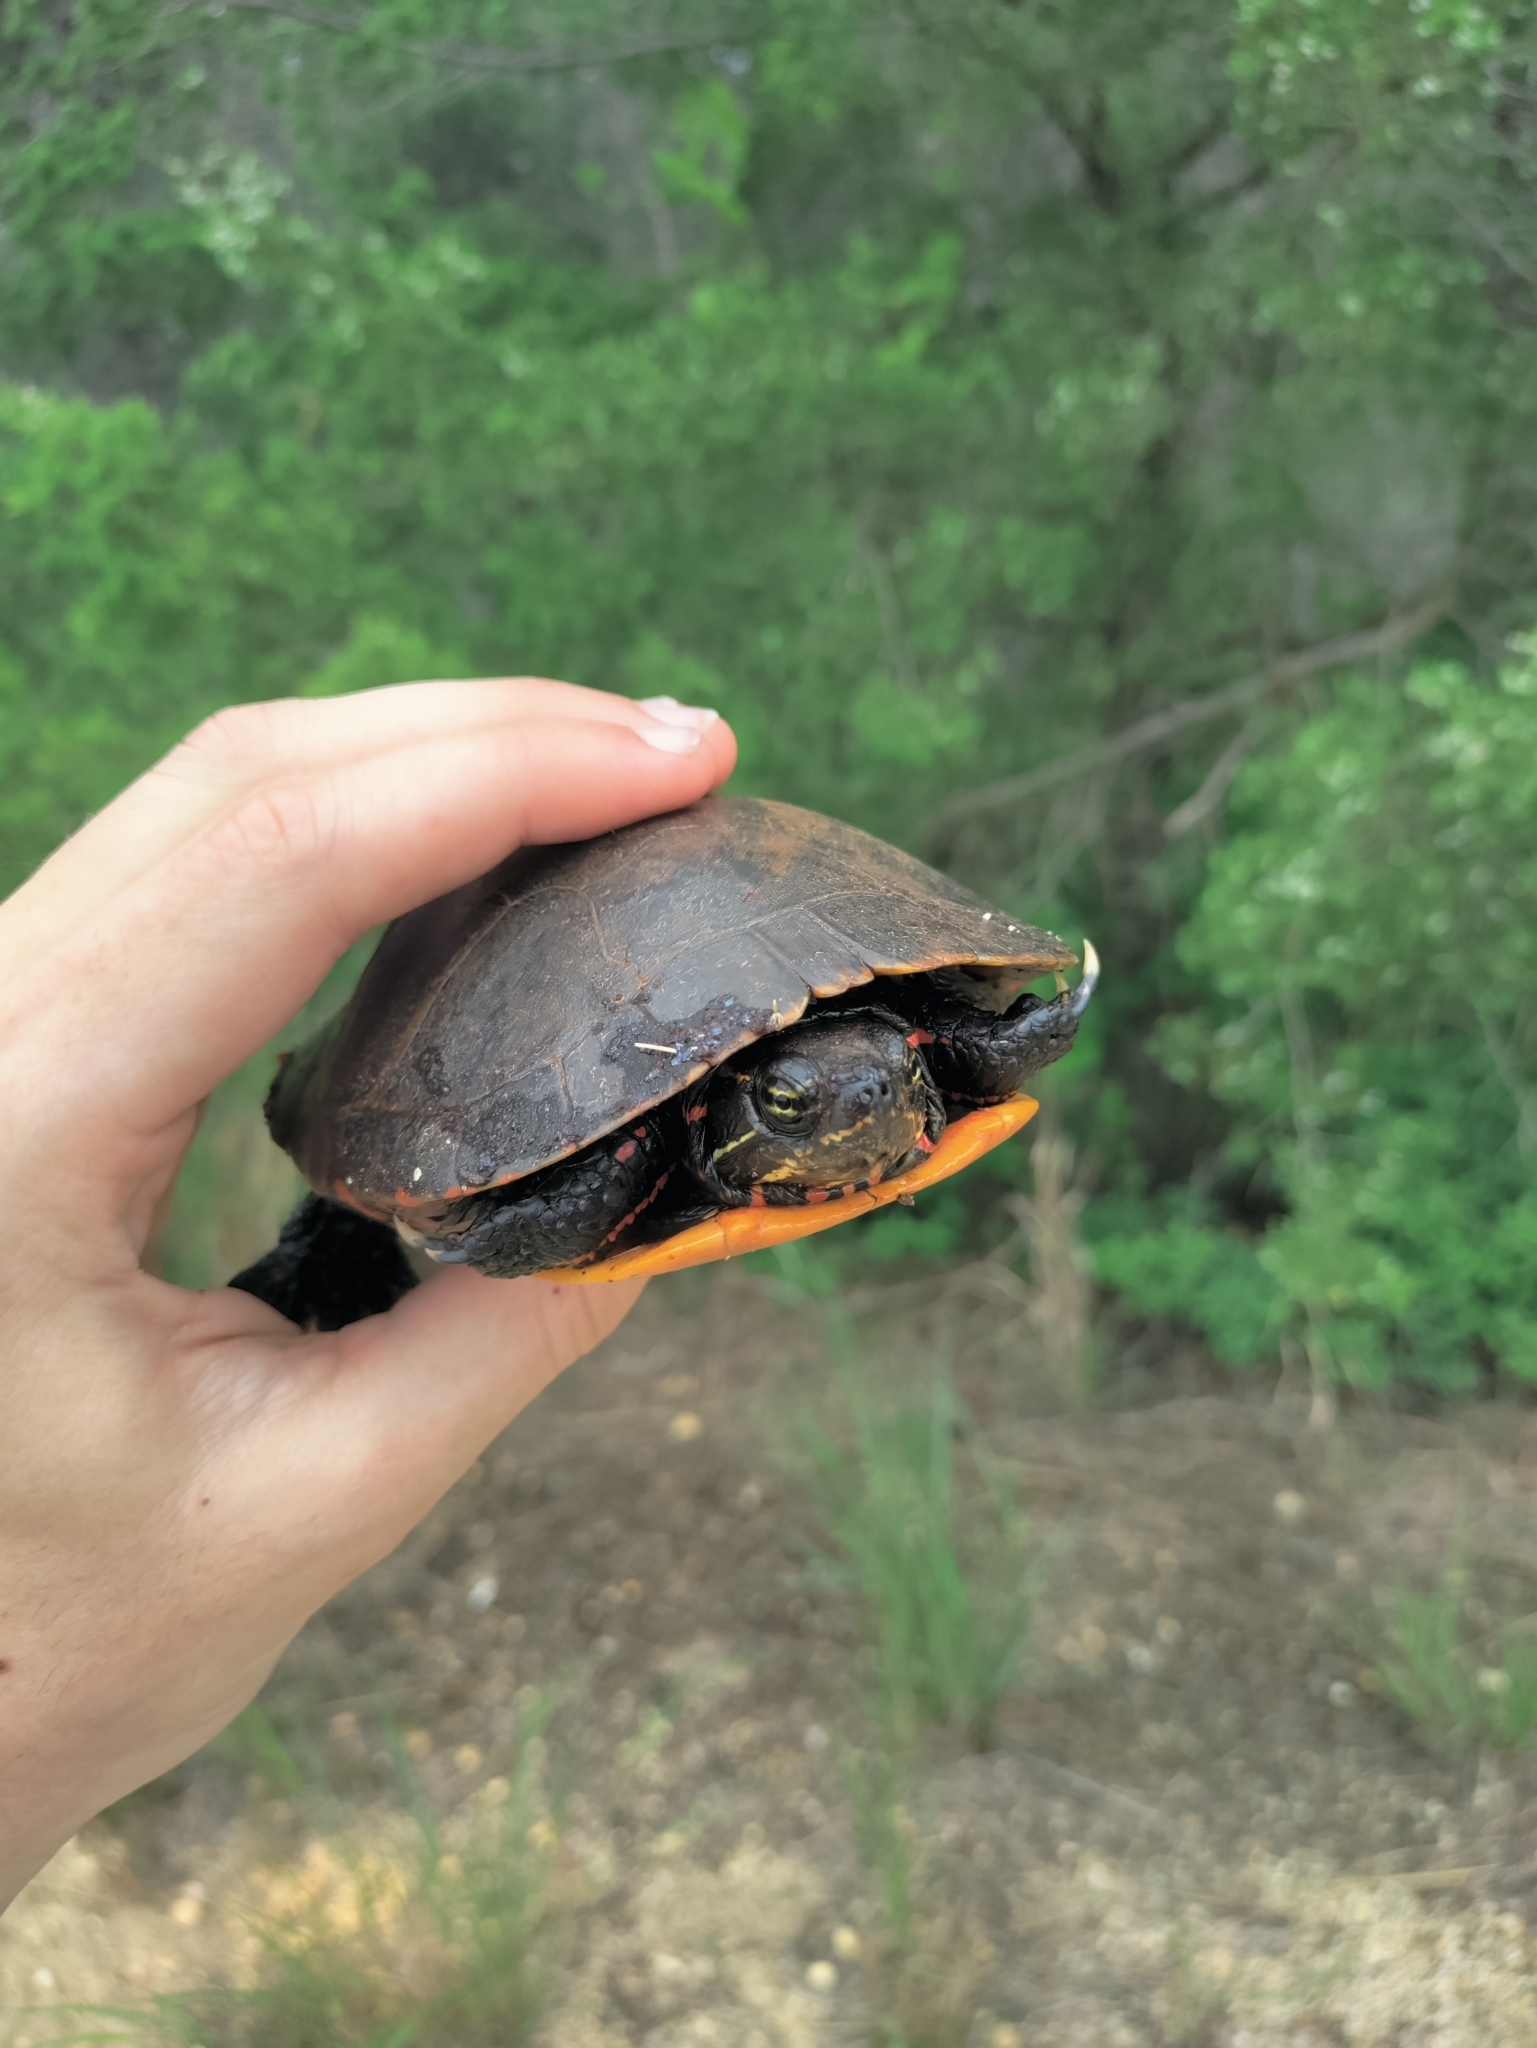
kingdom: Animalia
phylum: Chordata
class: Testudines
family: Emydidae
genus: Chrysemys
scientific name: Chrysemys picta
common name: Painted turtle
